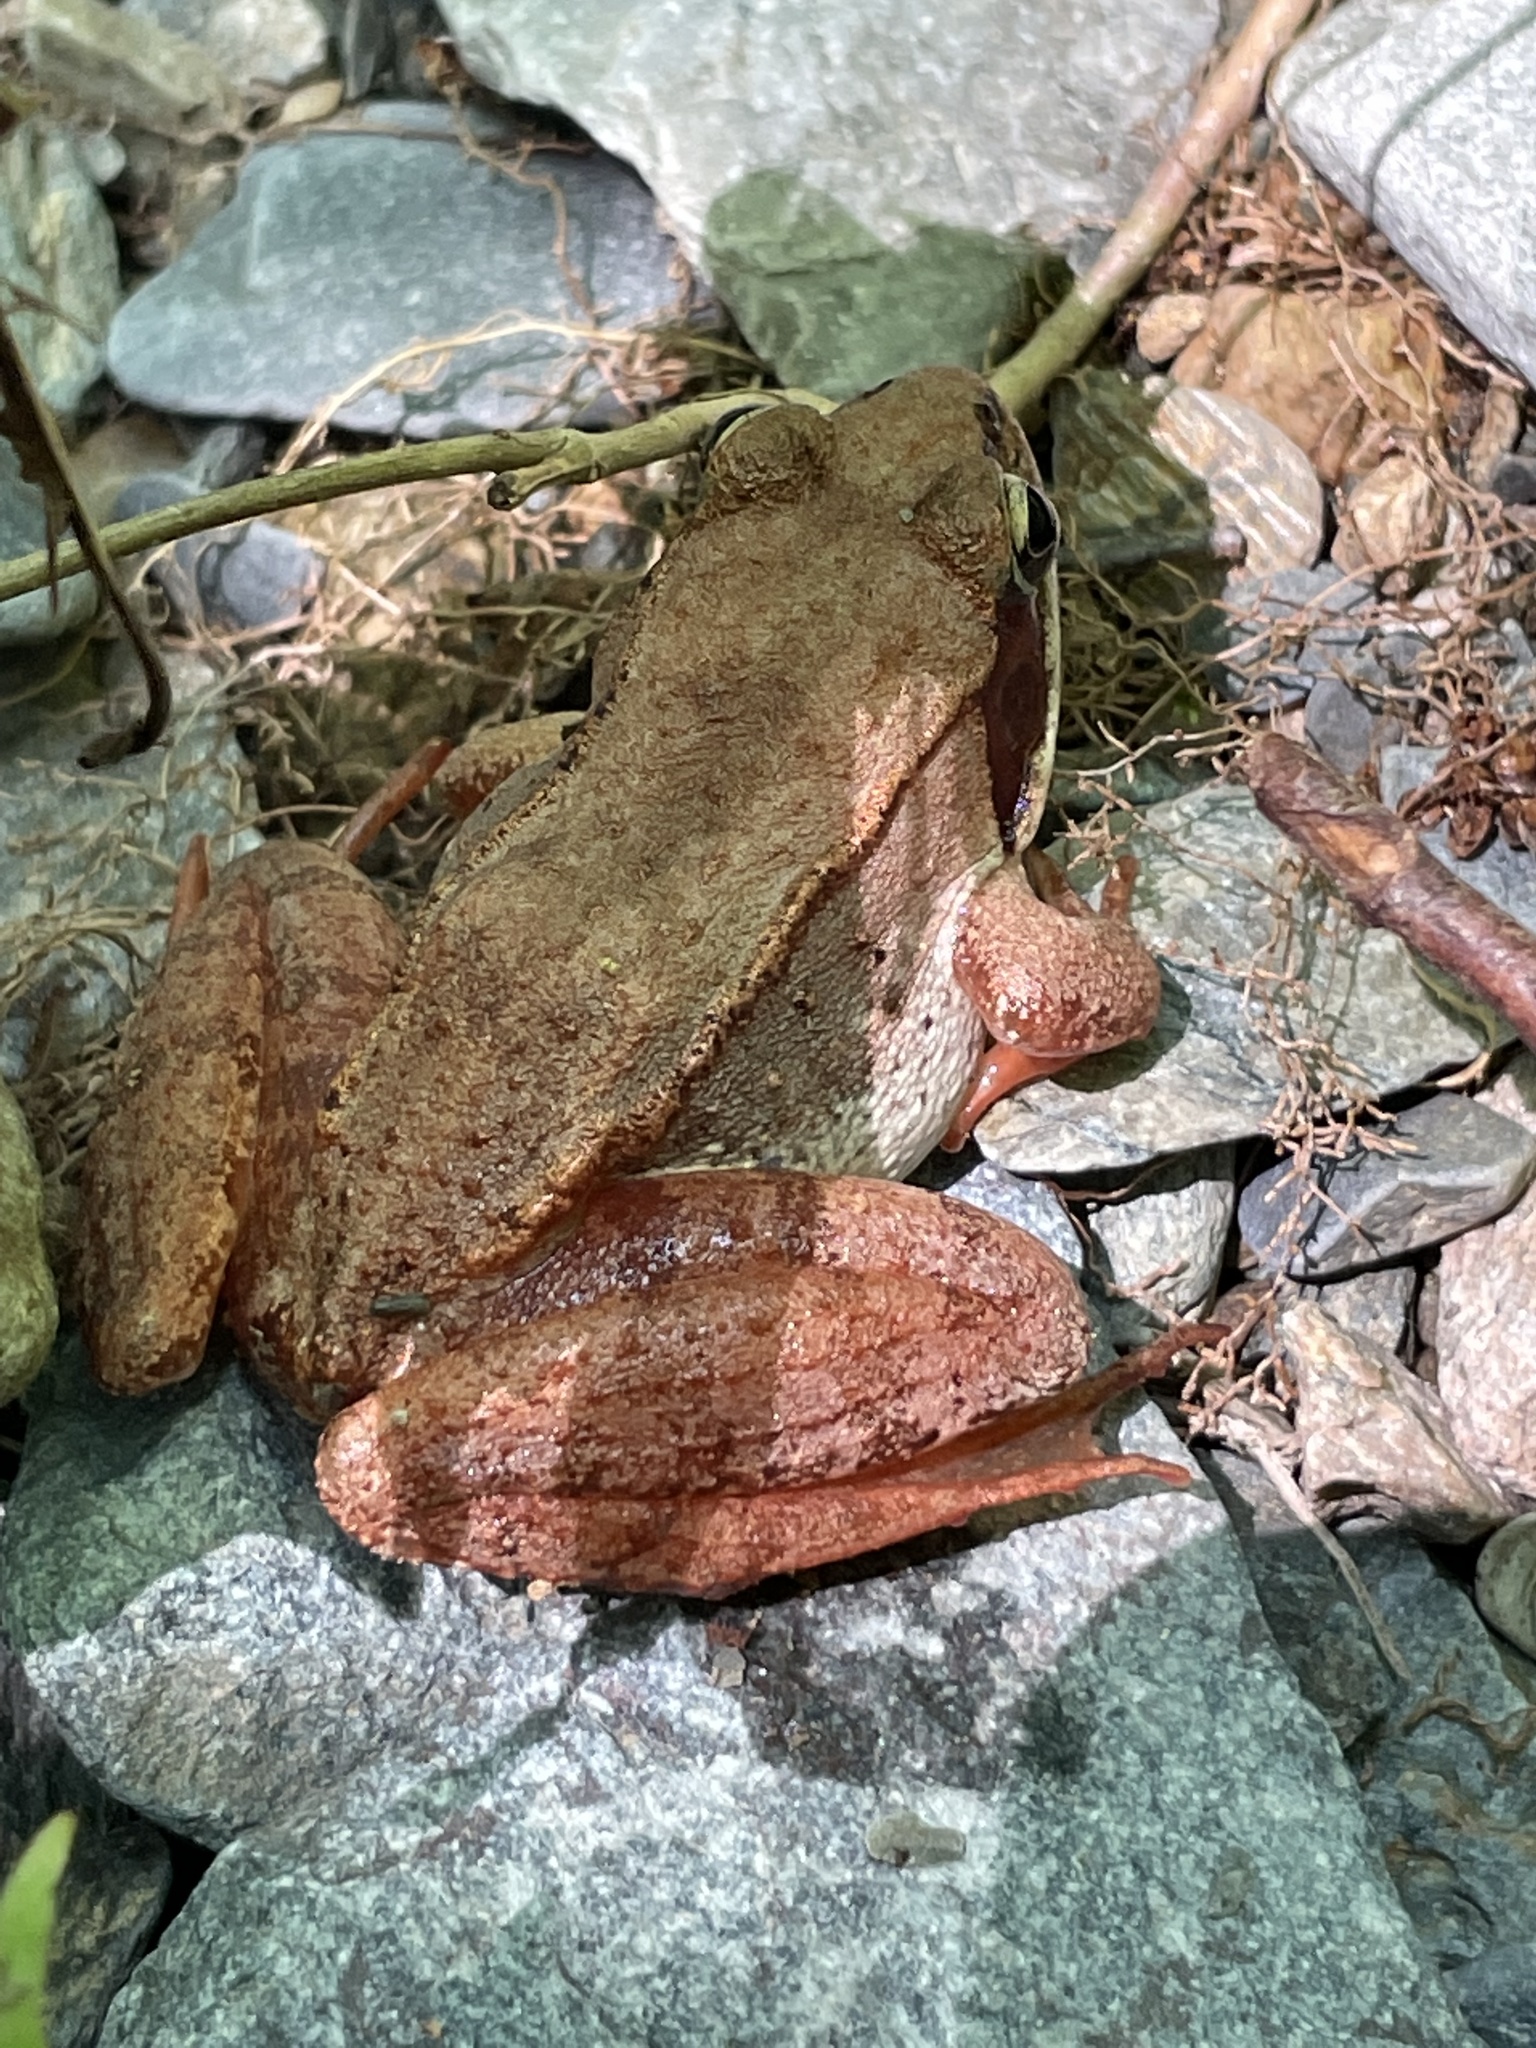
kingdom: Animalia
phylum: Chordata
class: Amphibia
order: Anura
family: Ranidae
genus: Lithobates
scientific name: Lithobates sylvaticus
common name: Wood frog
